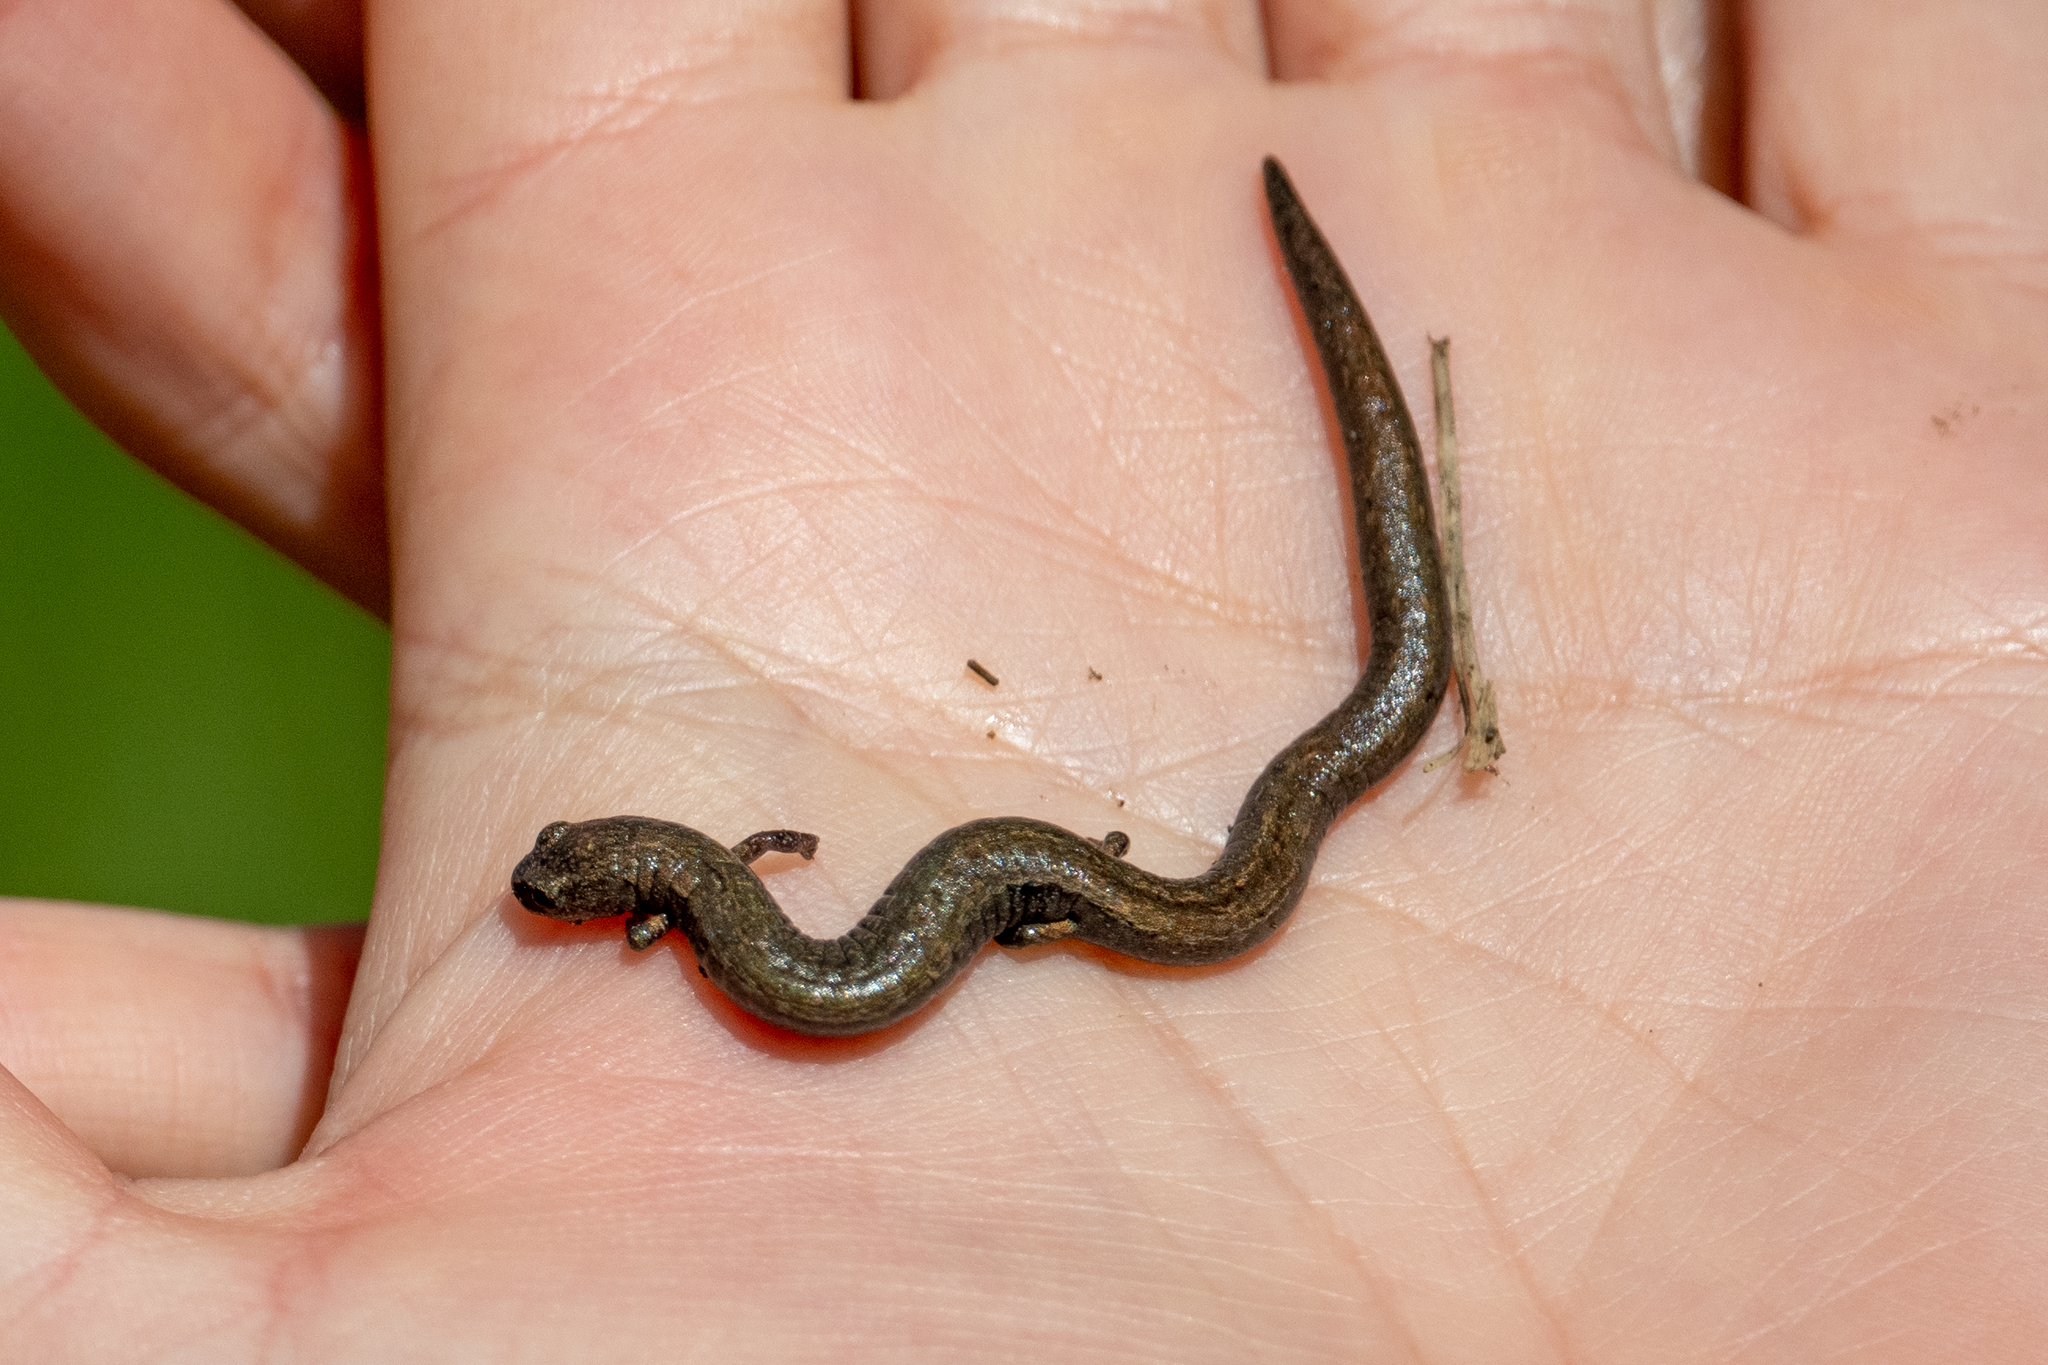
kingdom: Animalia
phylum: Chordata
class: Amphibia
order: Caudata
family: Plethodontidae
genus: Batrachoseps
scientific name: Batrachoseps attenuatus
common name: California slender salamander
